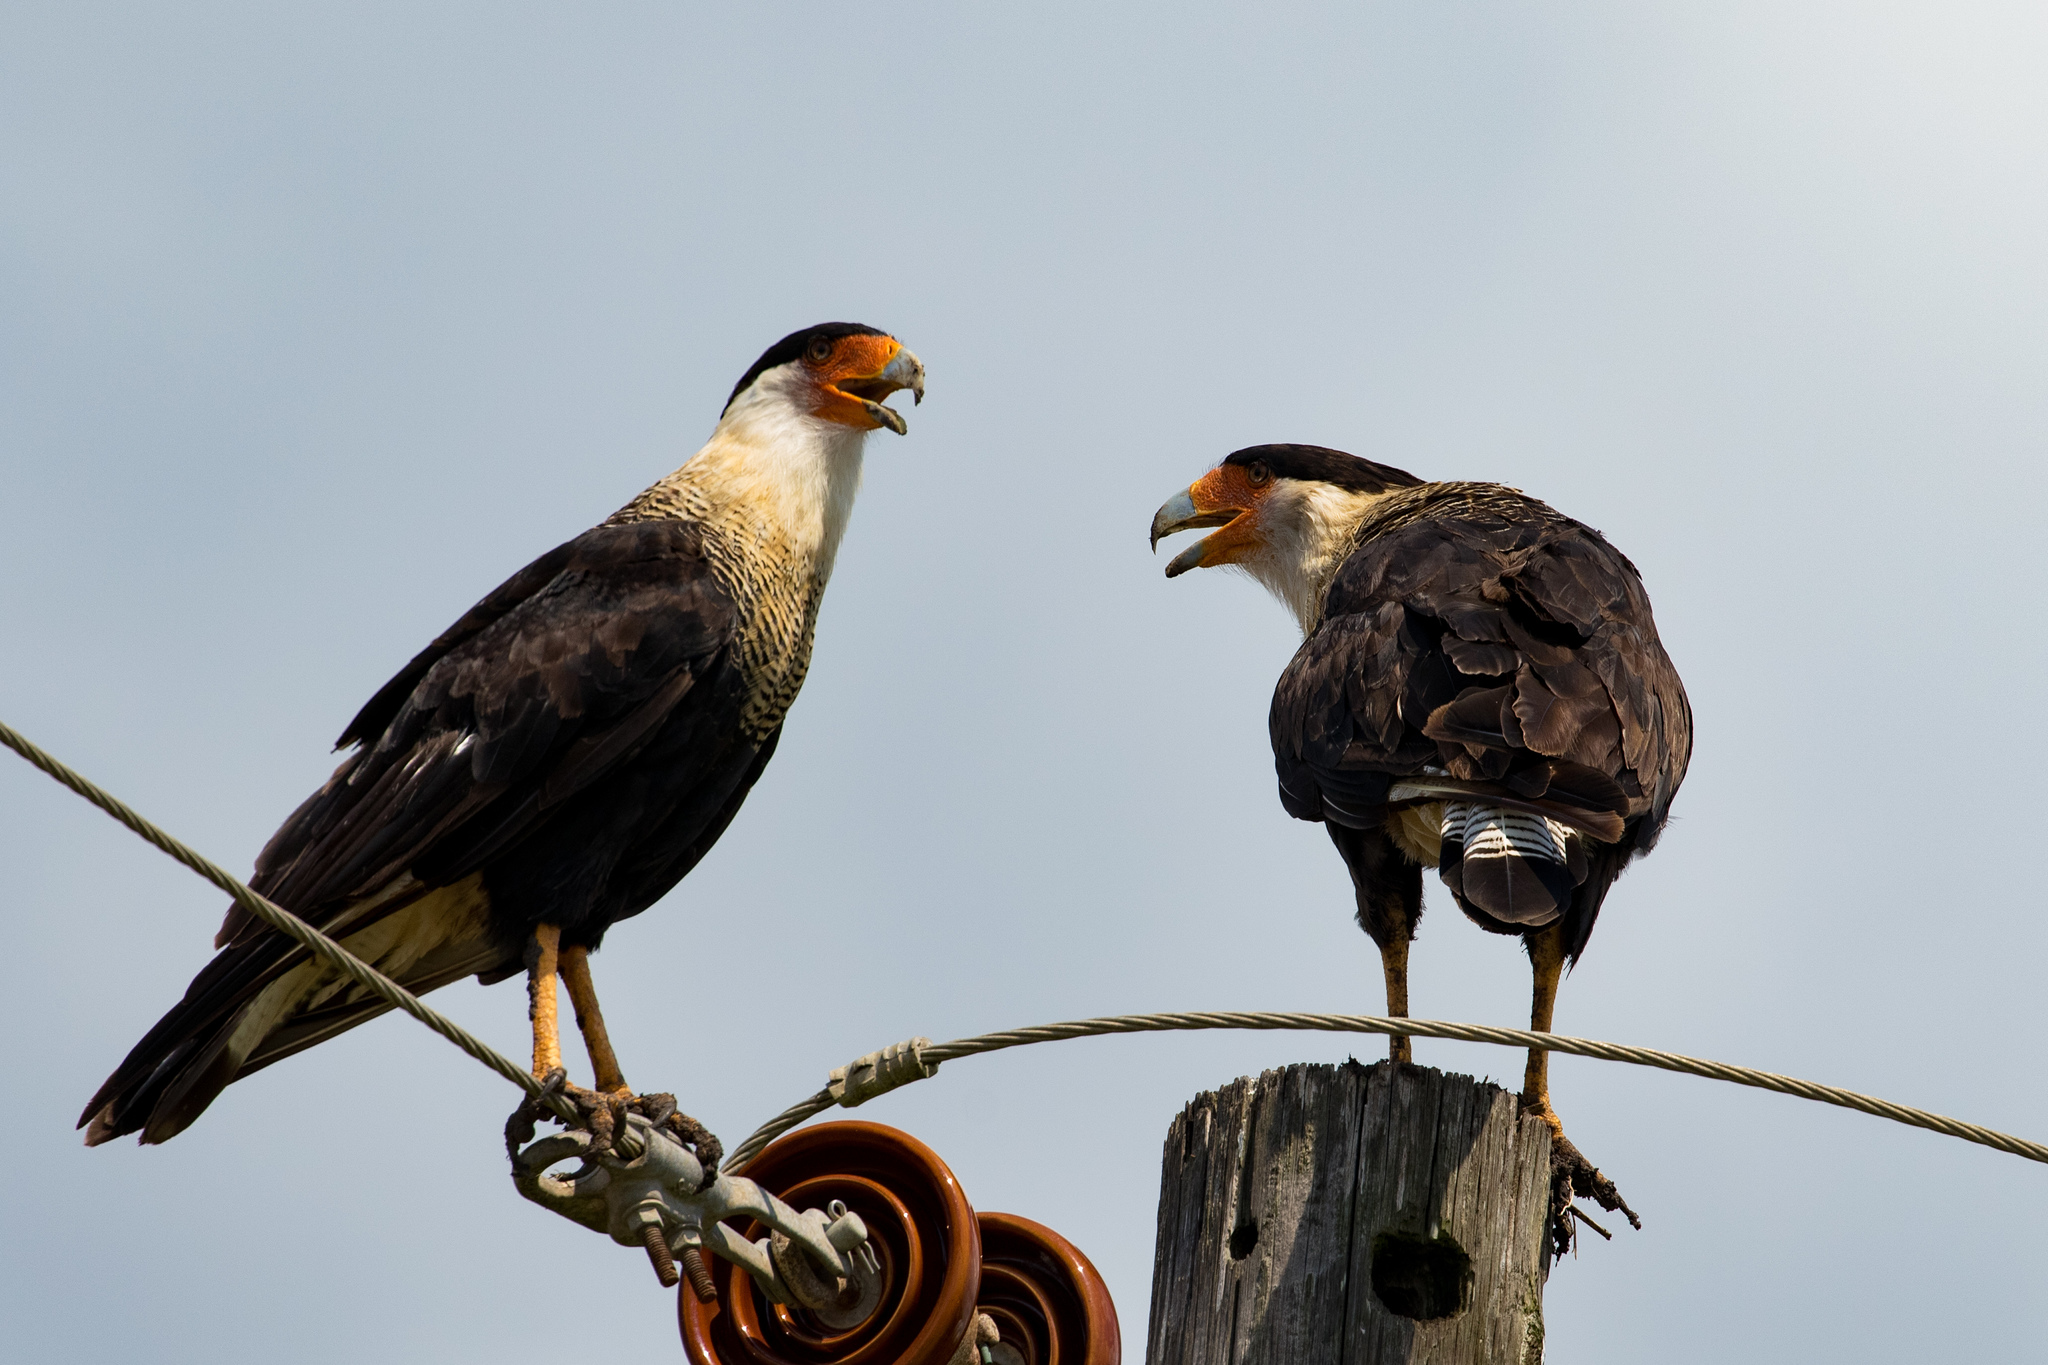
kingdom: Animalia
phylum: Chordata
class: Aves
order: Falconiformes
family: Falconidae
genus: Caracara
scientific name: Caracara plancus
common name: Southern caracara
